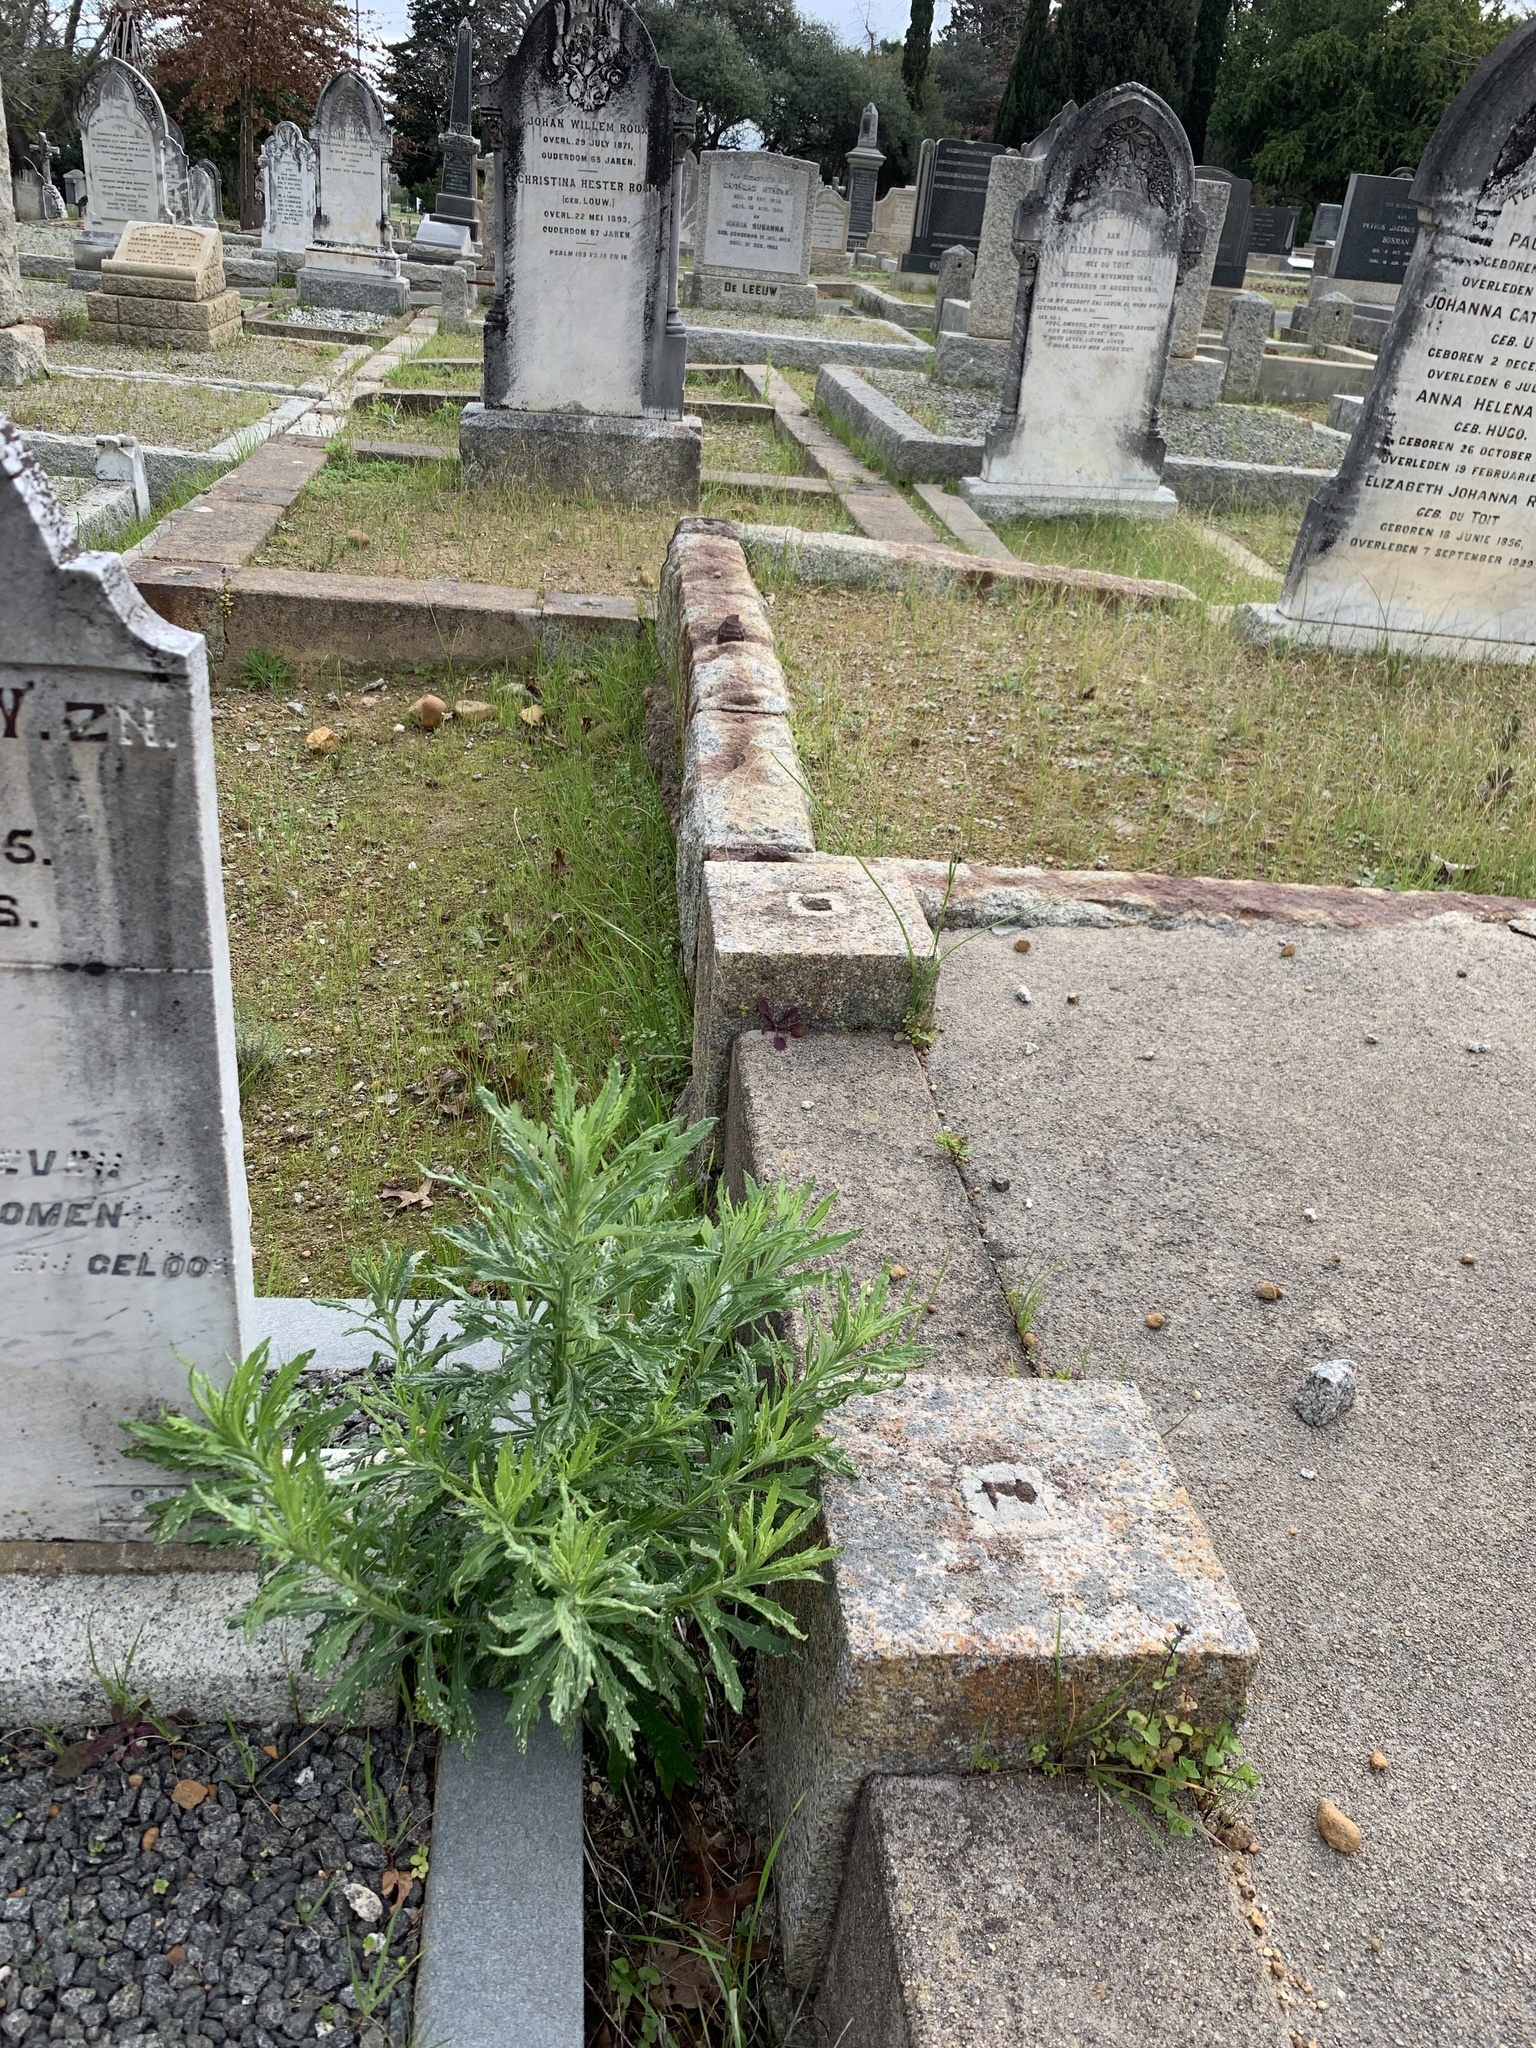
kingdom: Plantae
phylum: Tracheophyta
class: Magnoliopsida
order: Asterales
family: Asteraceae
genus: Senecio
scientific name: Senecio pterophorus
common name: Shoddy ragwort
